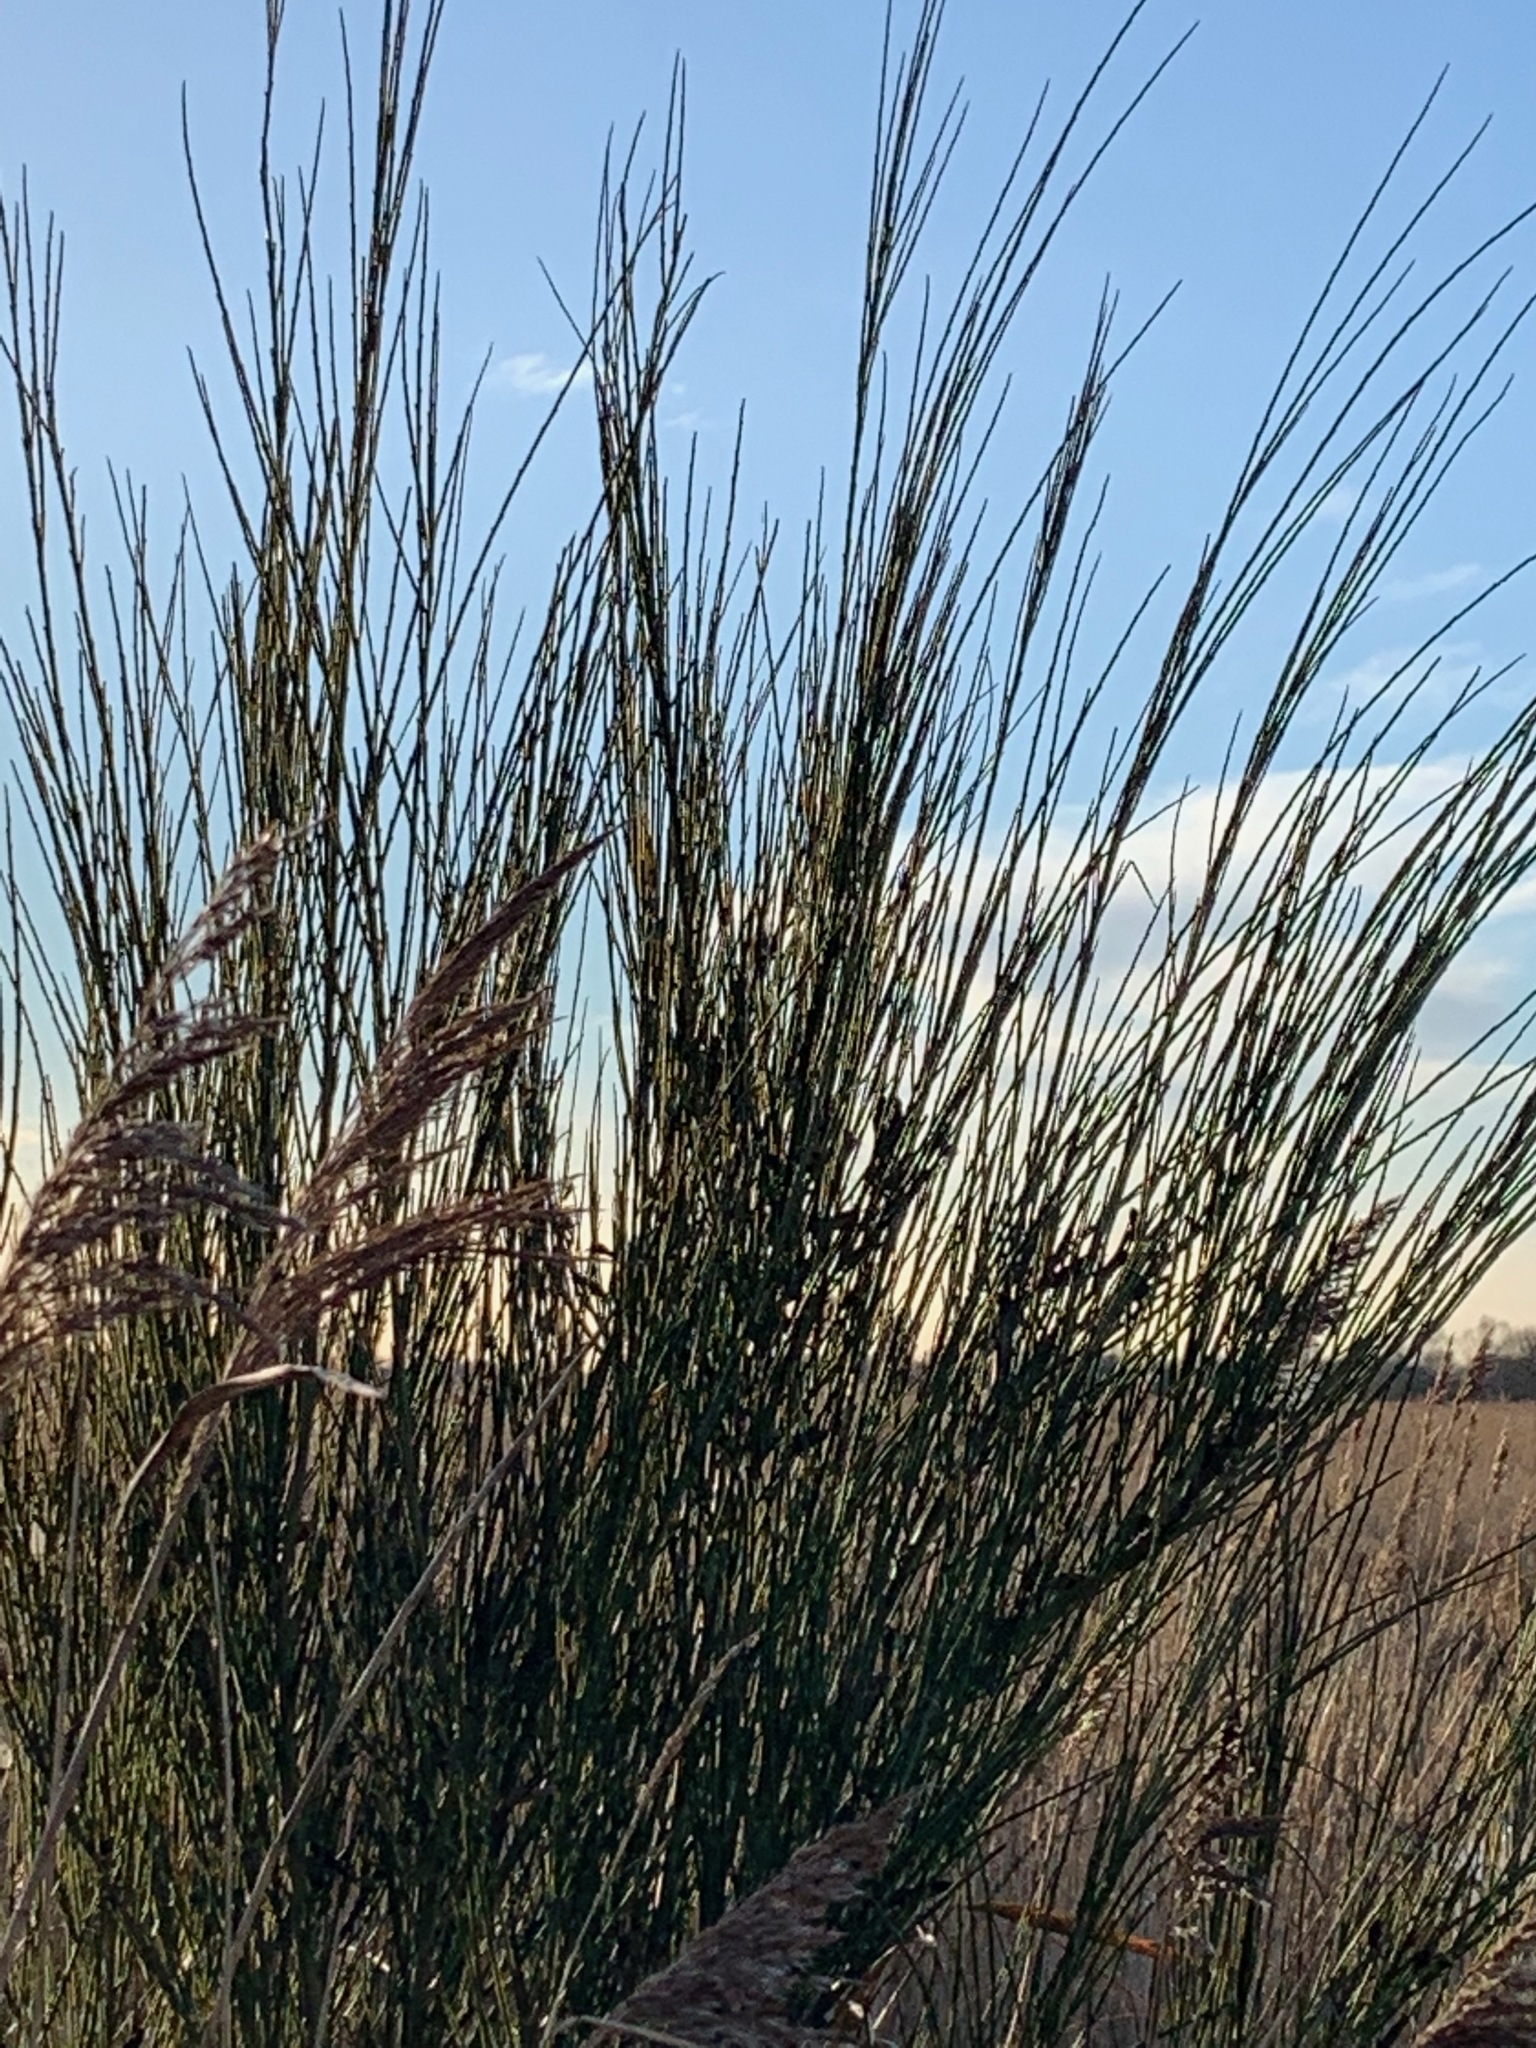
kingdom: Plantae
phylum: Tracheophyta
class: Magnoliopsida
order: Fabales
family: Fabaceae
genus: Cytisus
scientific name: Cytisus scoparius
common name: Scotch broom
